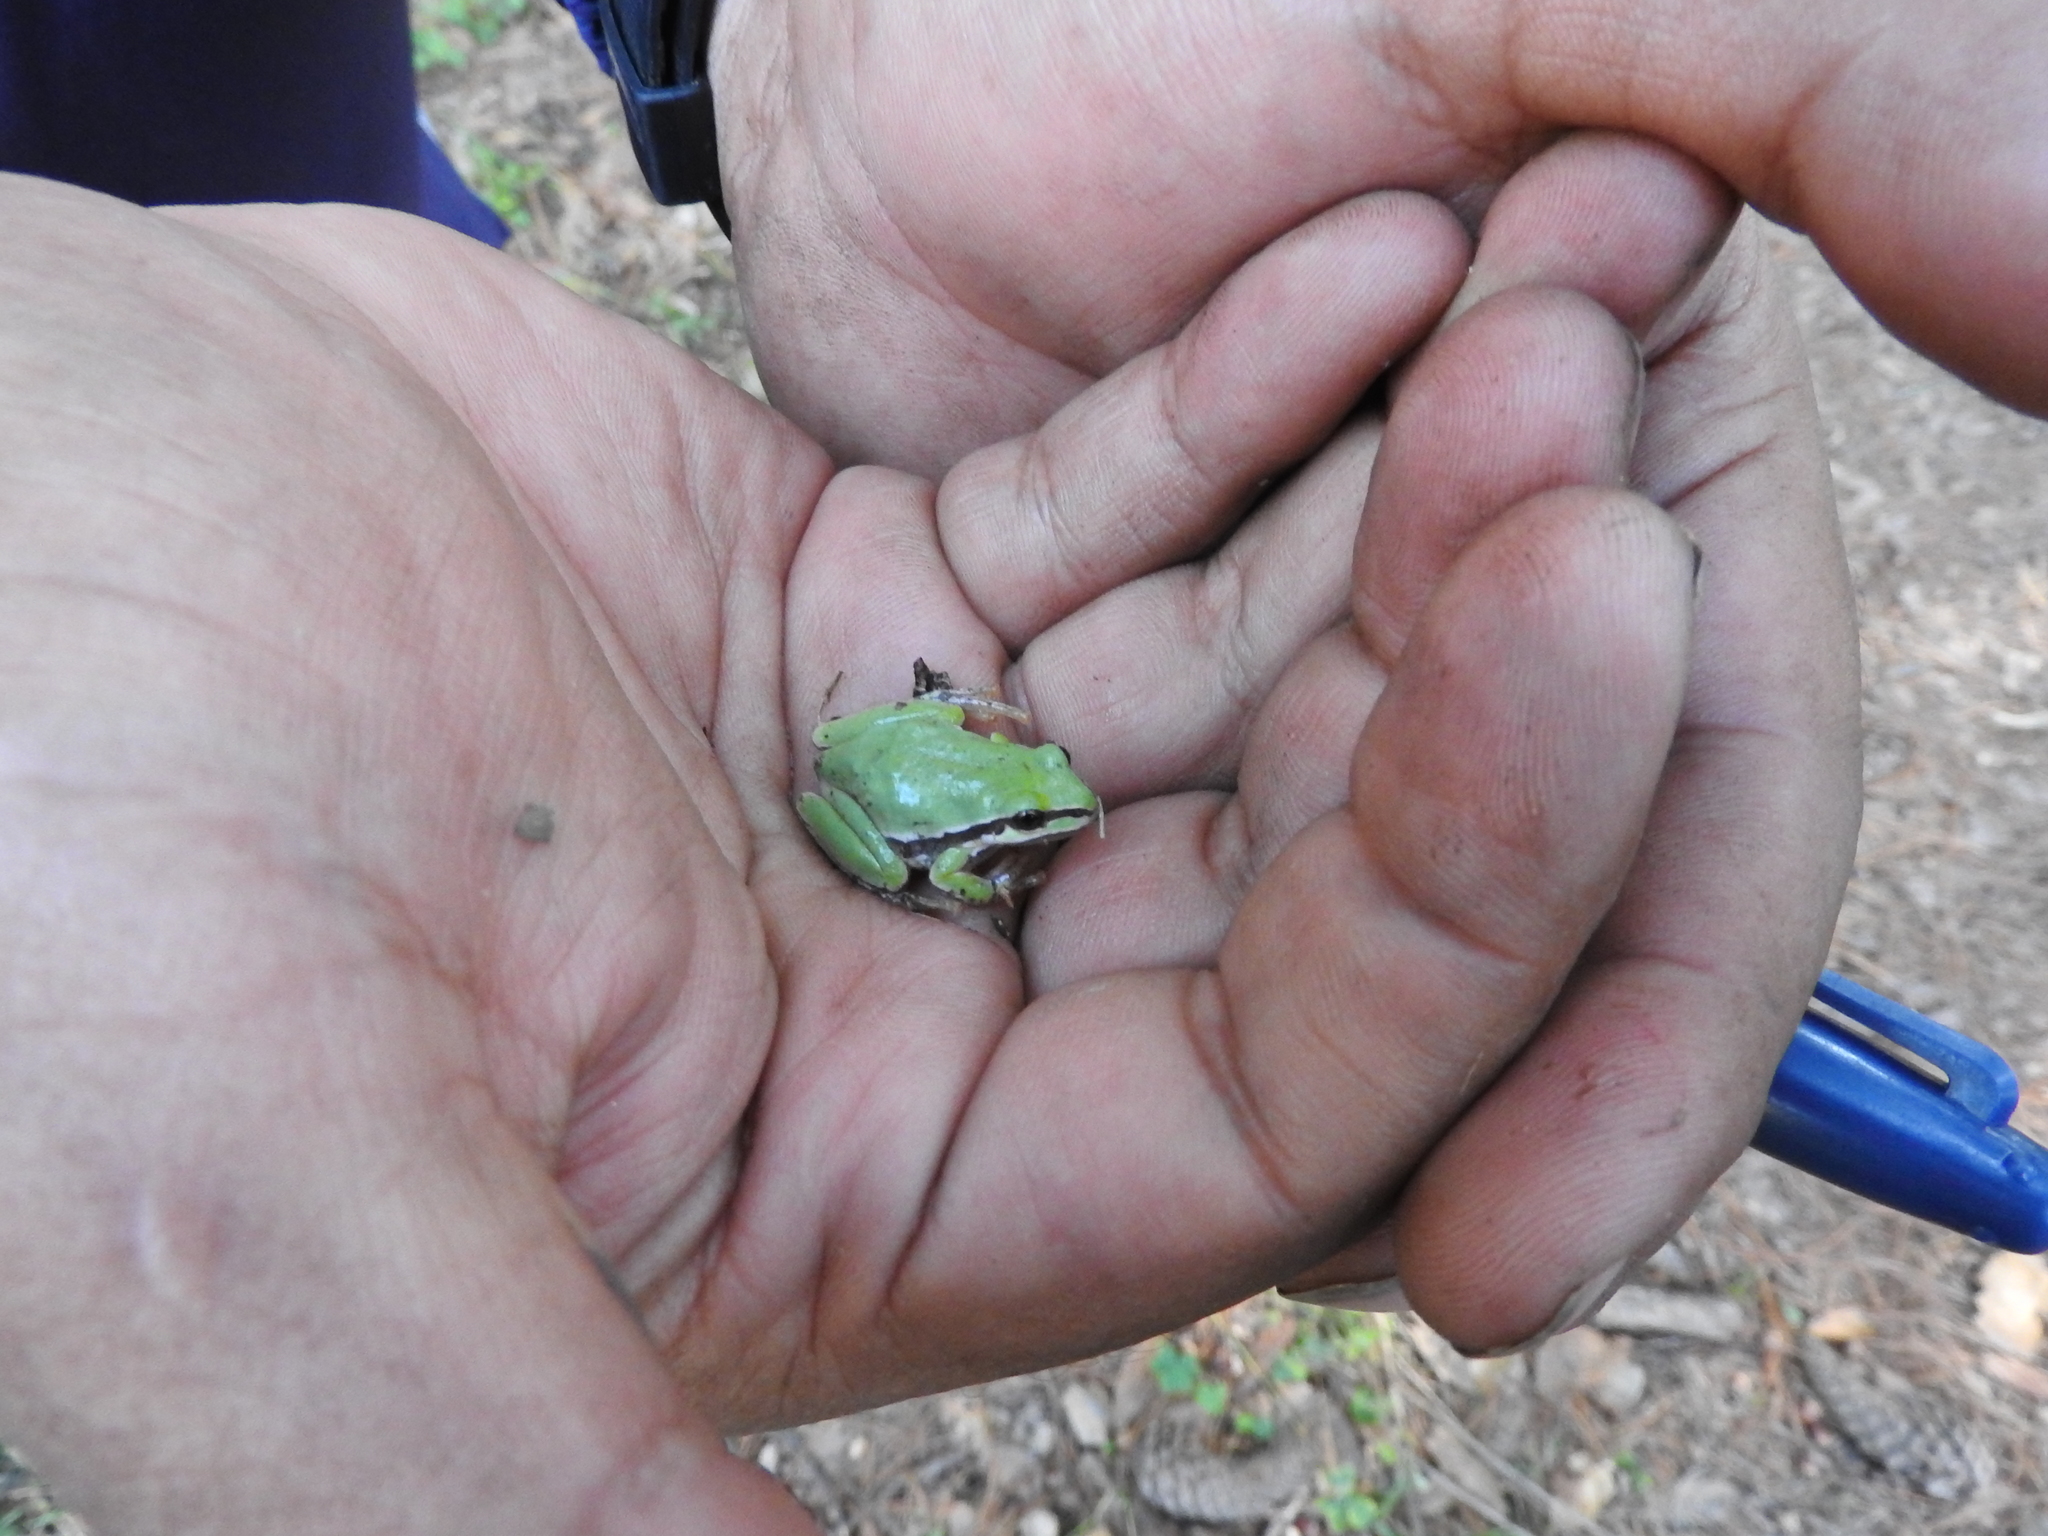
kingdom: Animalia
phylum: Chordata
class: Amphibia
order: Anura
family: Hylidae
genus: Dryophytes
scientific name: Dryophytes eximius
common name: Mountain treefrog
